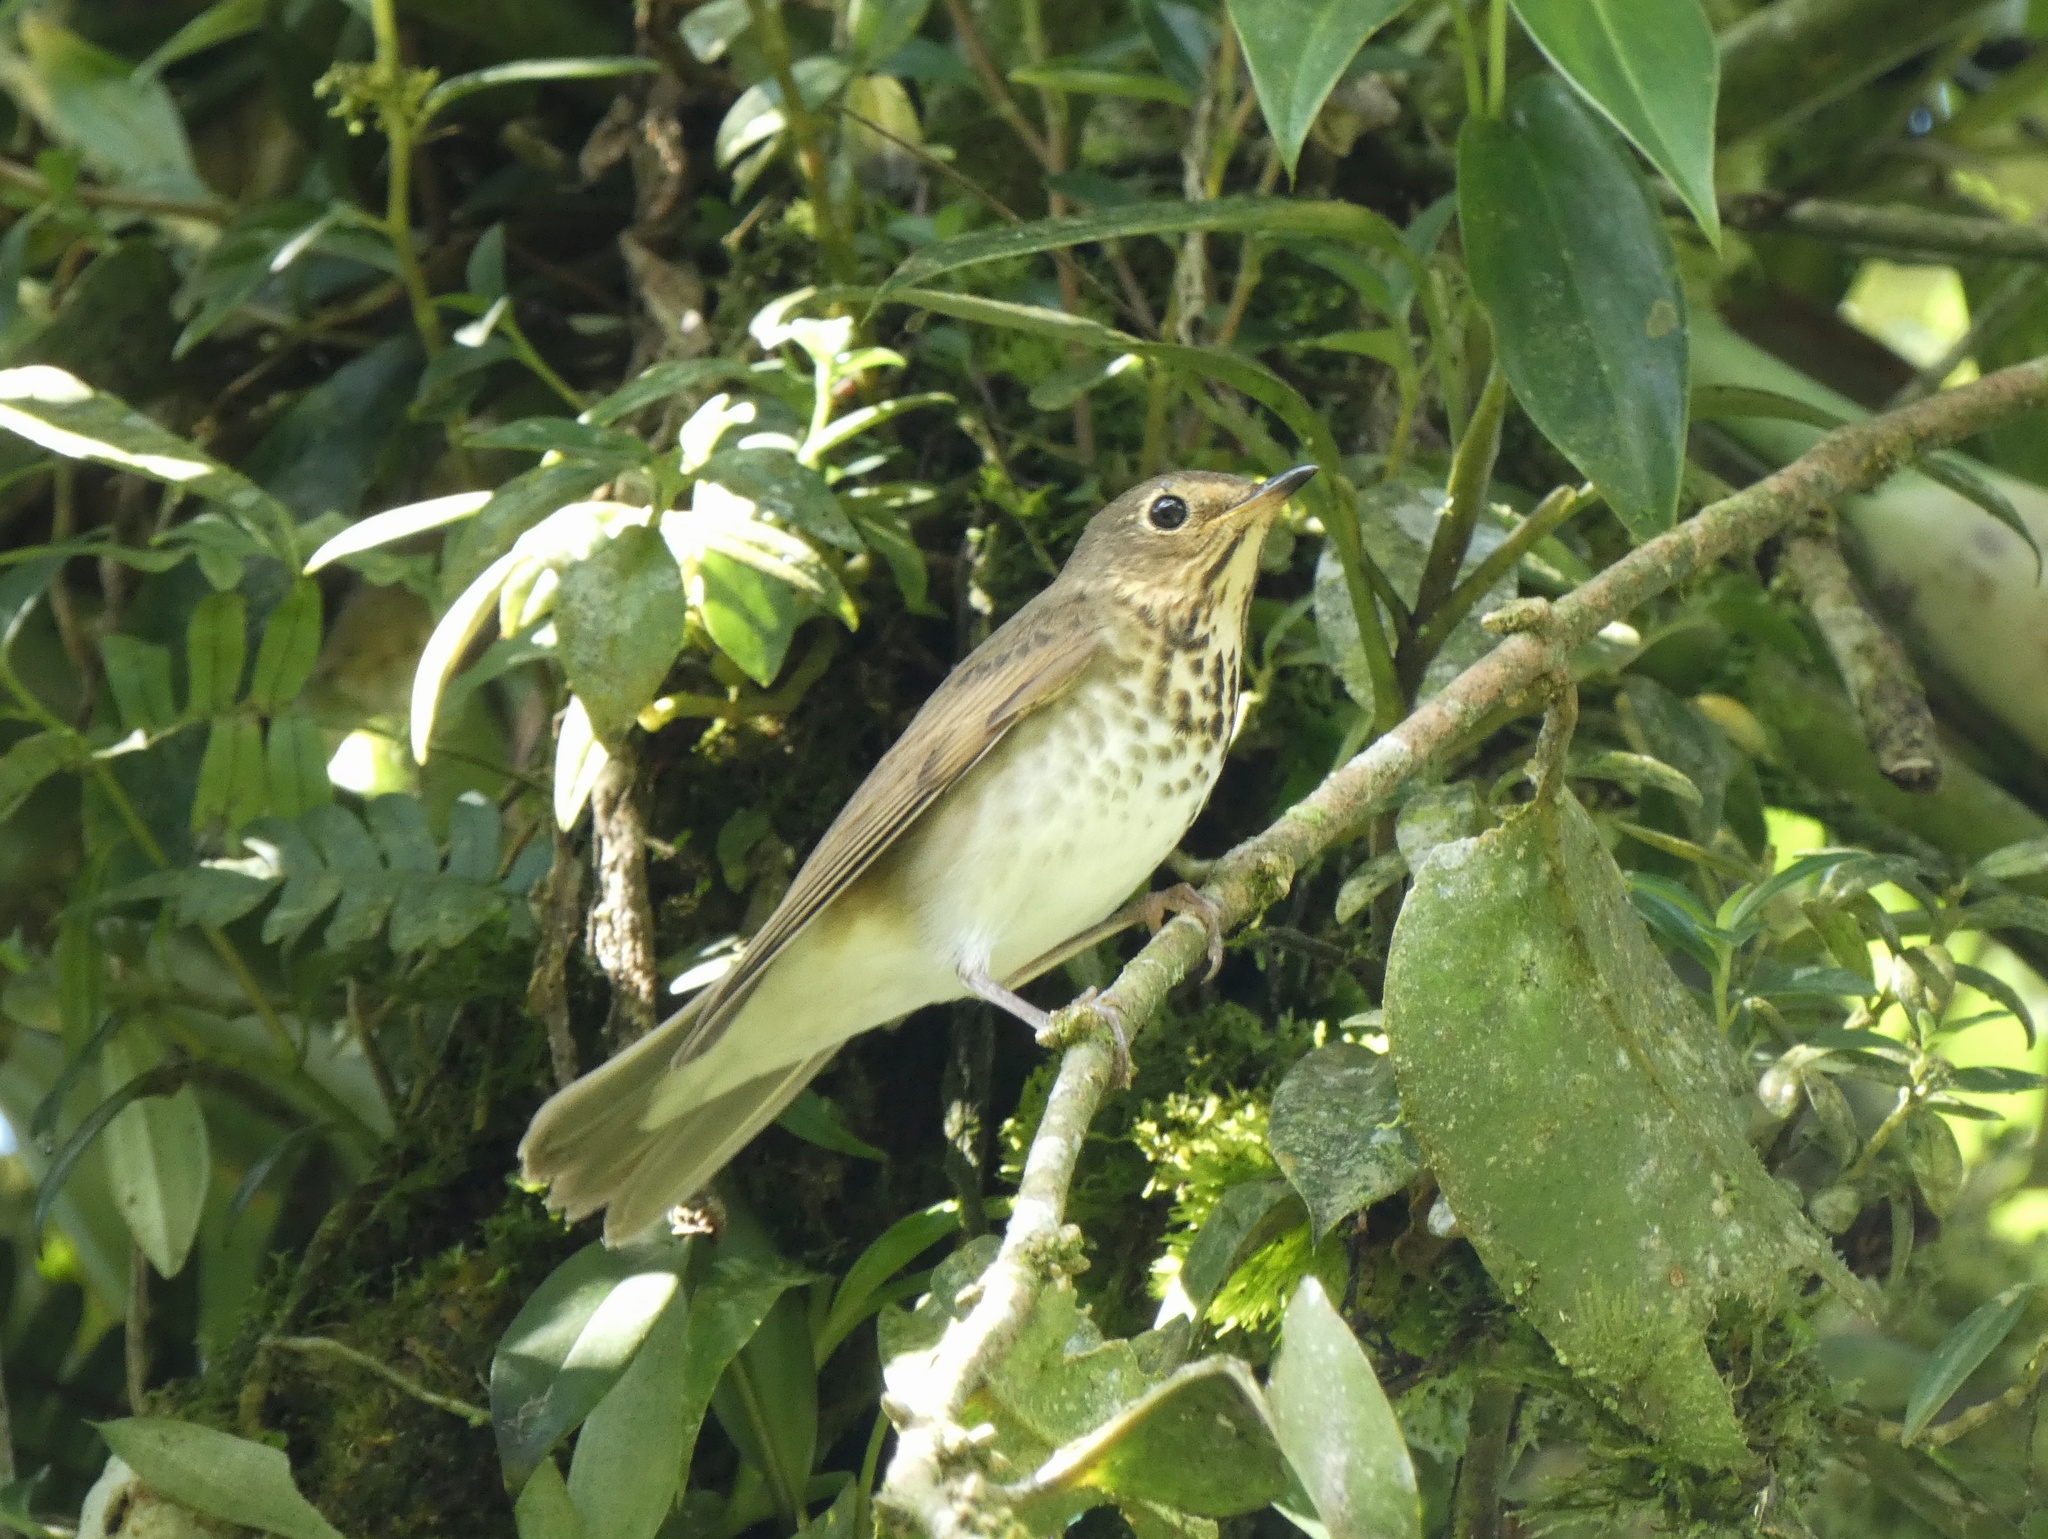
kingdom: Animalia
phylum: Chordata
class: Aves
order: Passeriformes
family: Turdidae
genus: Catharus
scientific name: Catharus ustulatus
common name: Swainson's thrush
